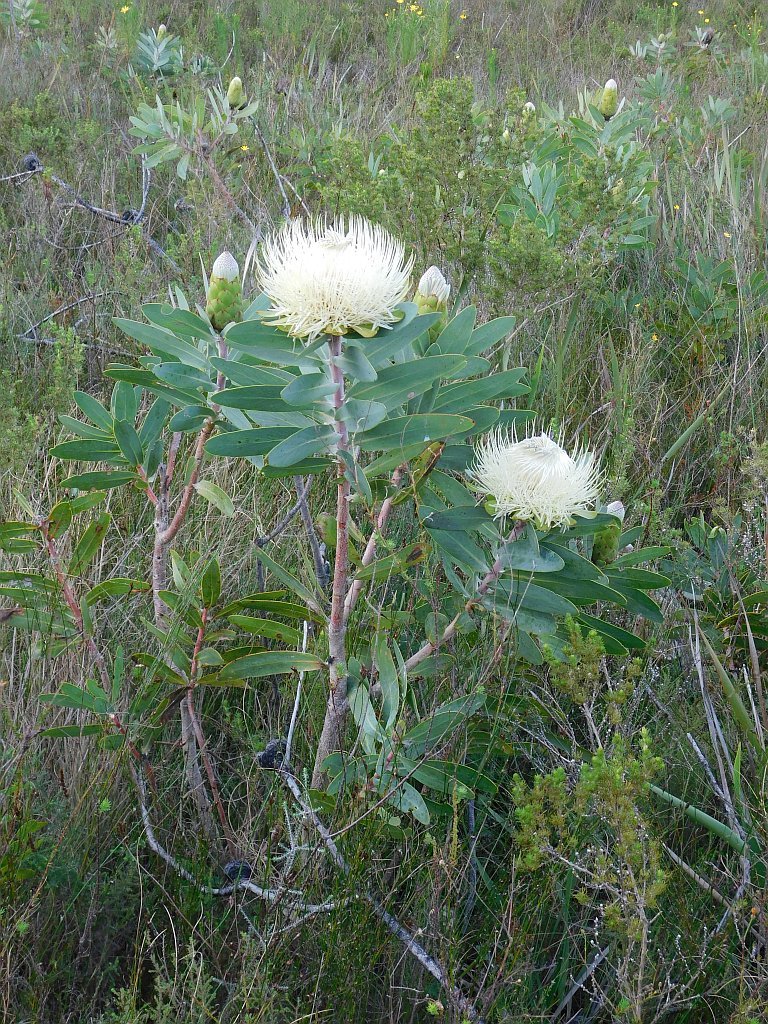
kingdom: Plantae
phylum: Tracheophyta
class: Magnoliopsida
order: Proteales
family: Proteaceae
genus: Protea
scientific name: Protea nitida
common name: Tree protea
